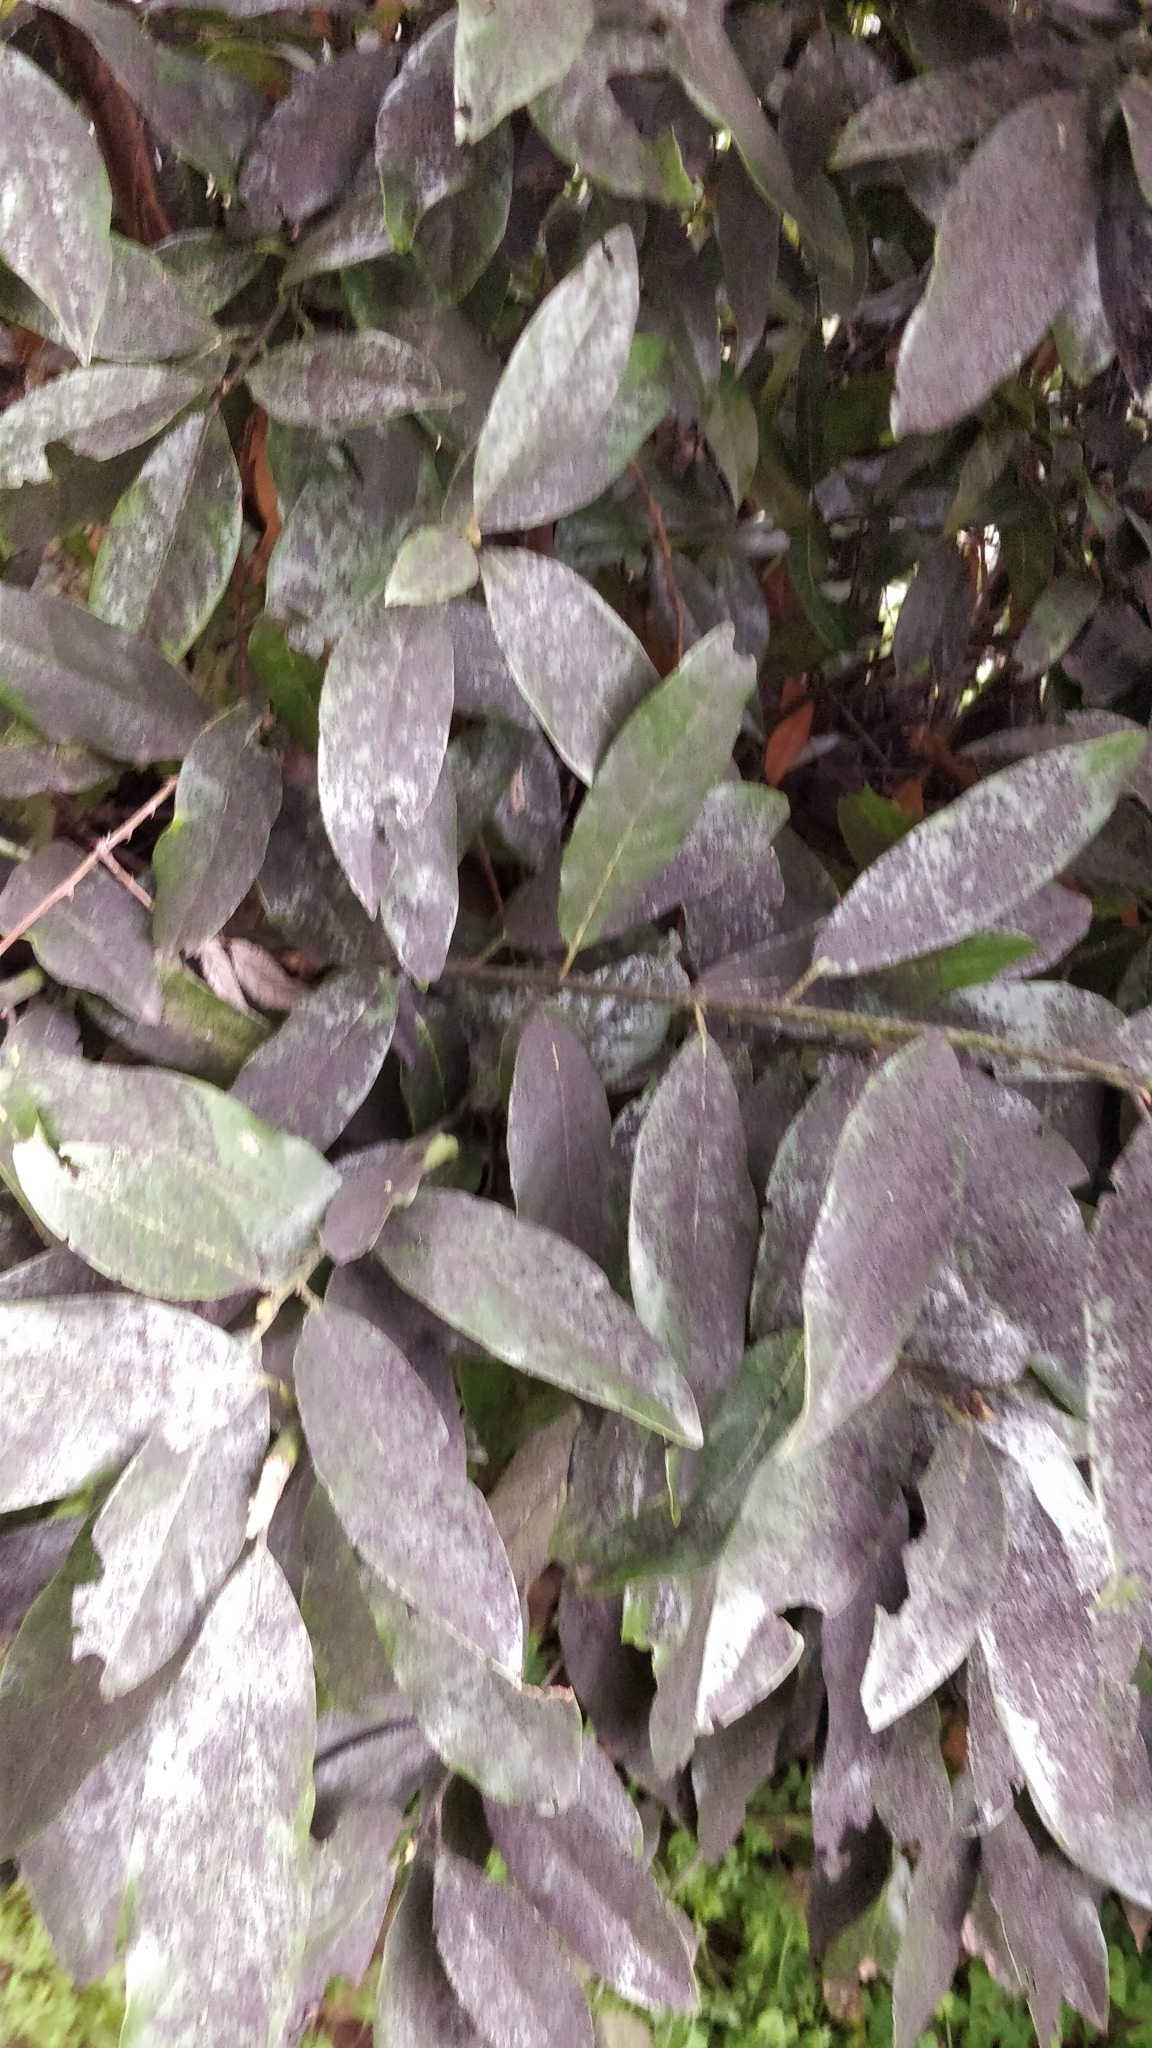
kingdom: Plantae
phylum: Tracheophyta
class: Magnoliopsida
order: Laurales
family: Lauraceae
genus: Laurus
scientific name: Laurus novocanariensis
